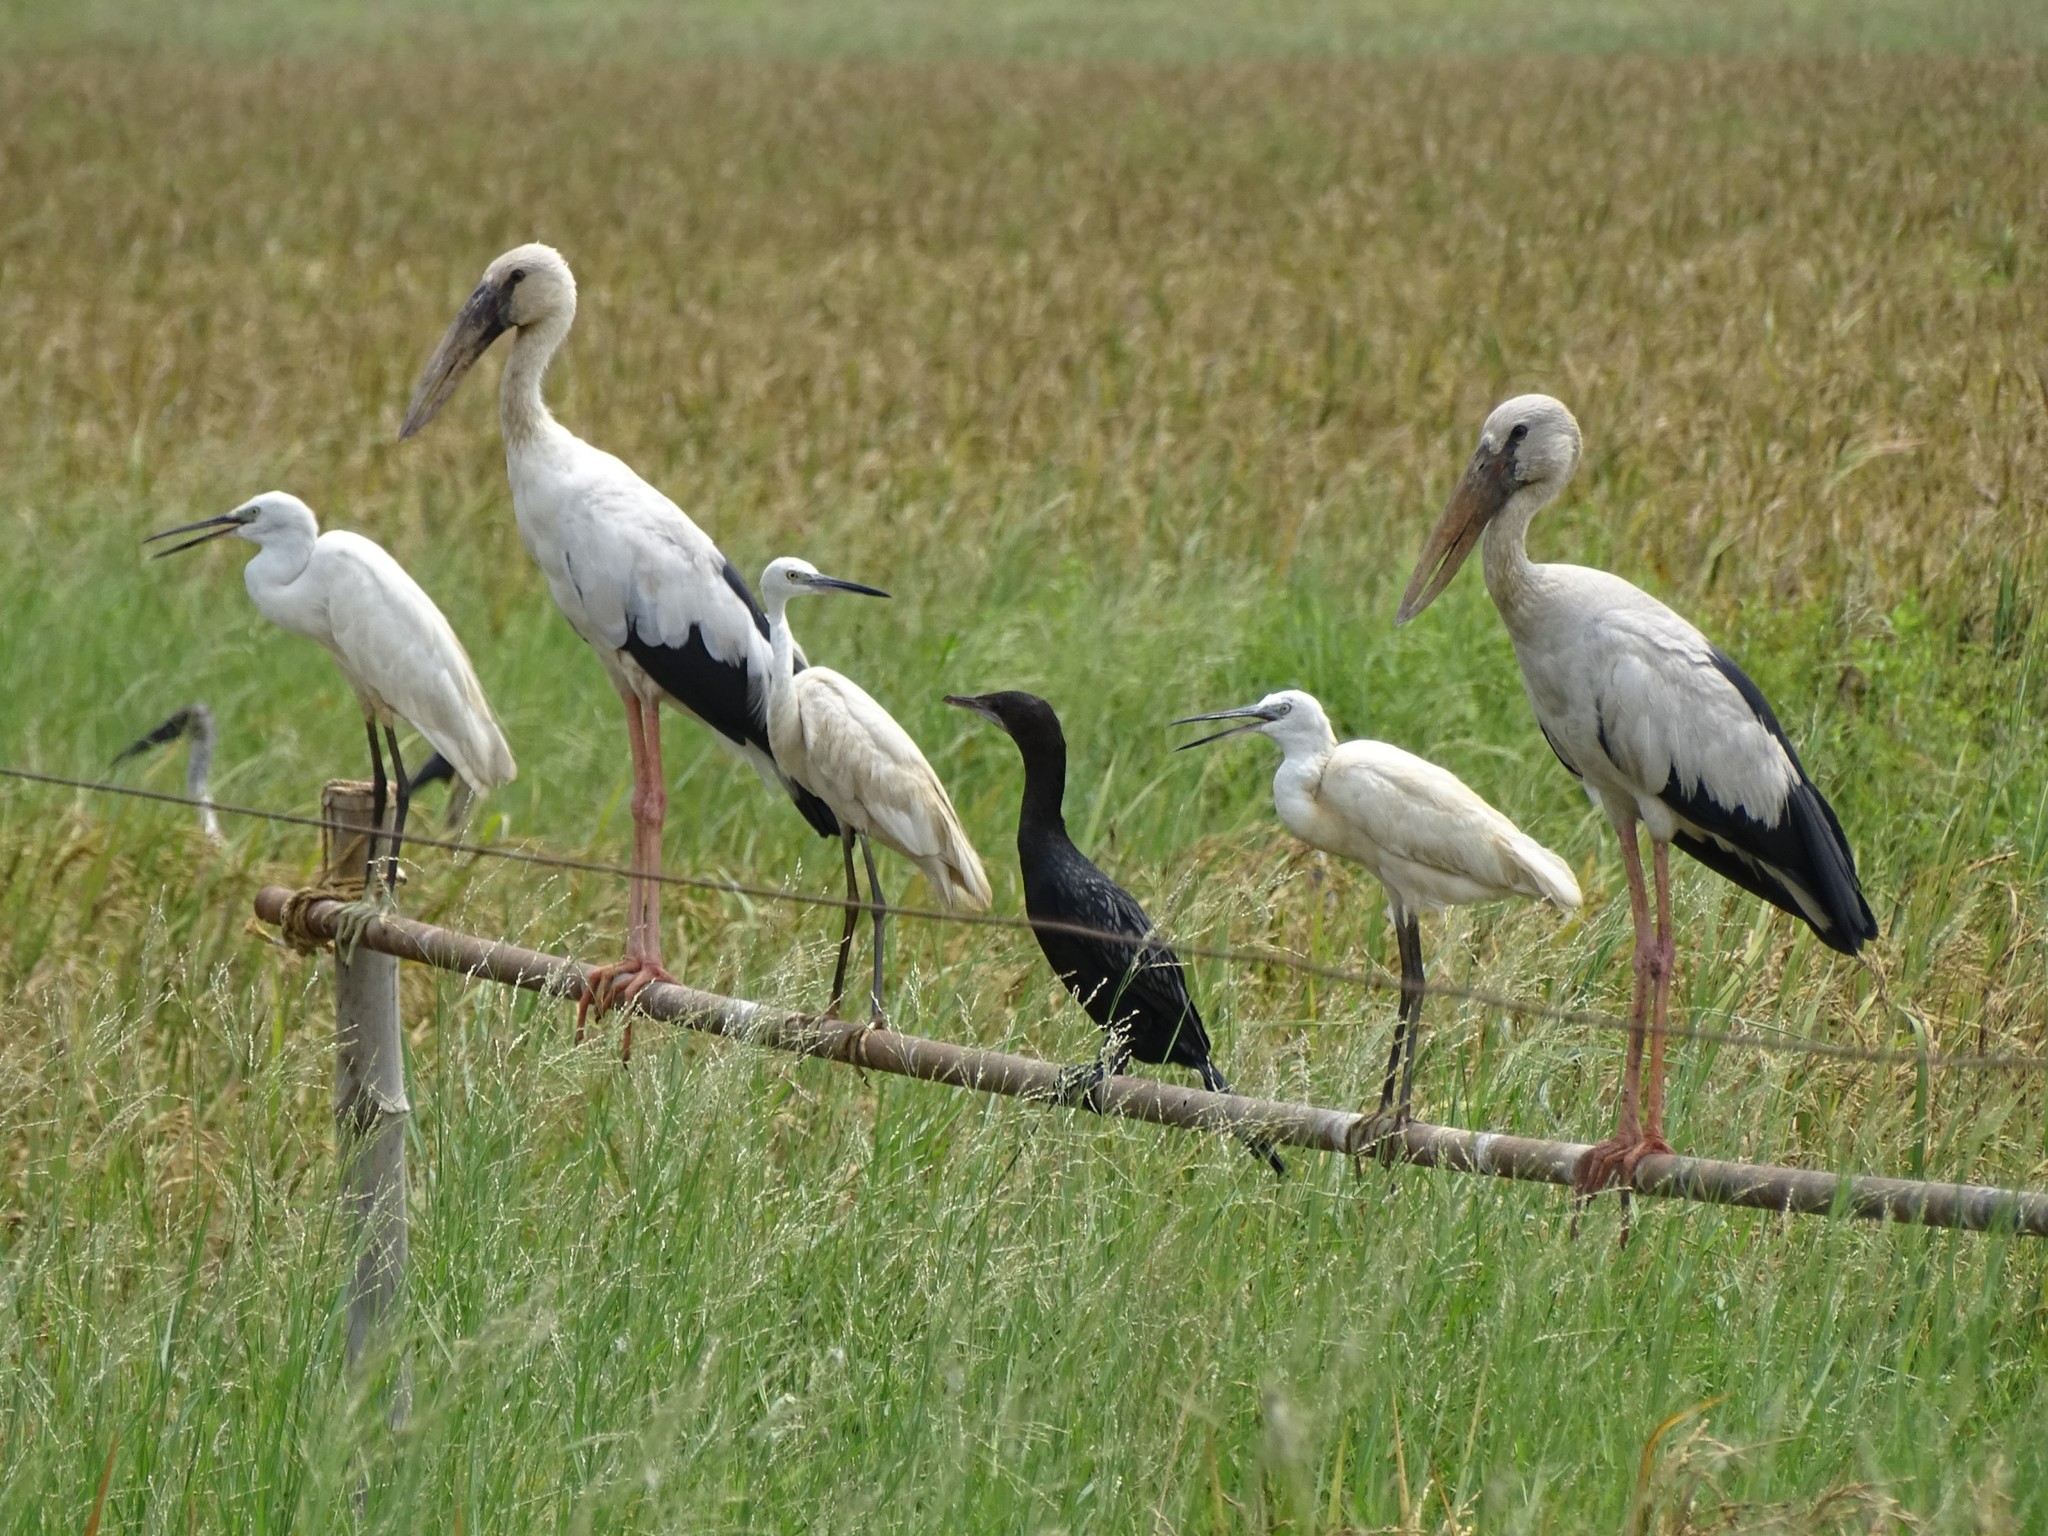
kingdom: Animalia
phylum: Chordata
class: Aves
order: Ciconiiformes
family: Ciconiidae
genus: Anastomus
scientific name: Anastomus oscitans
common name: Asian openbill
